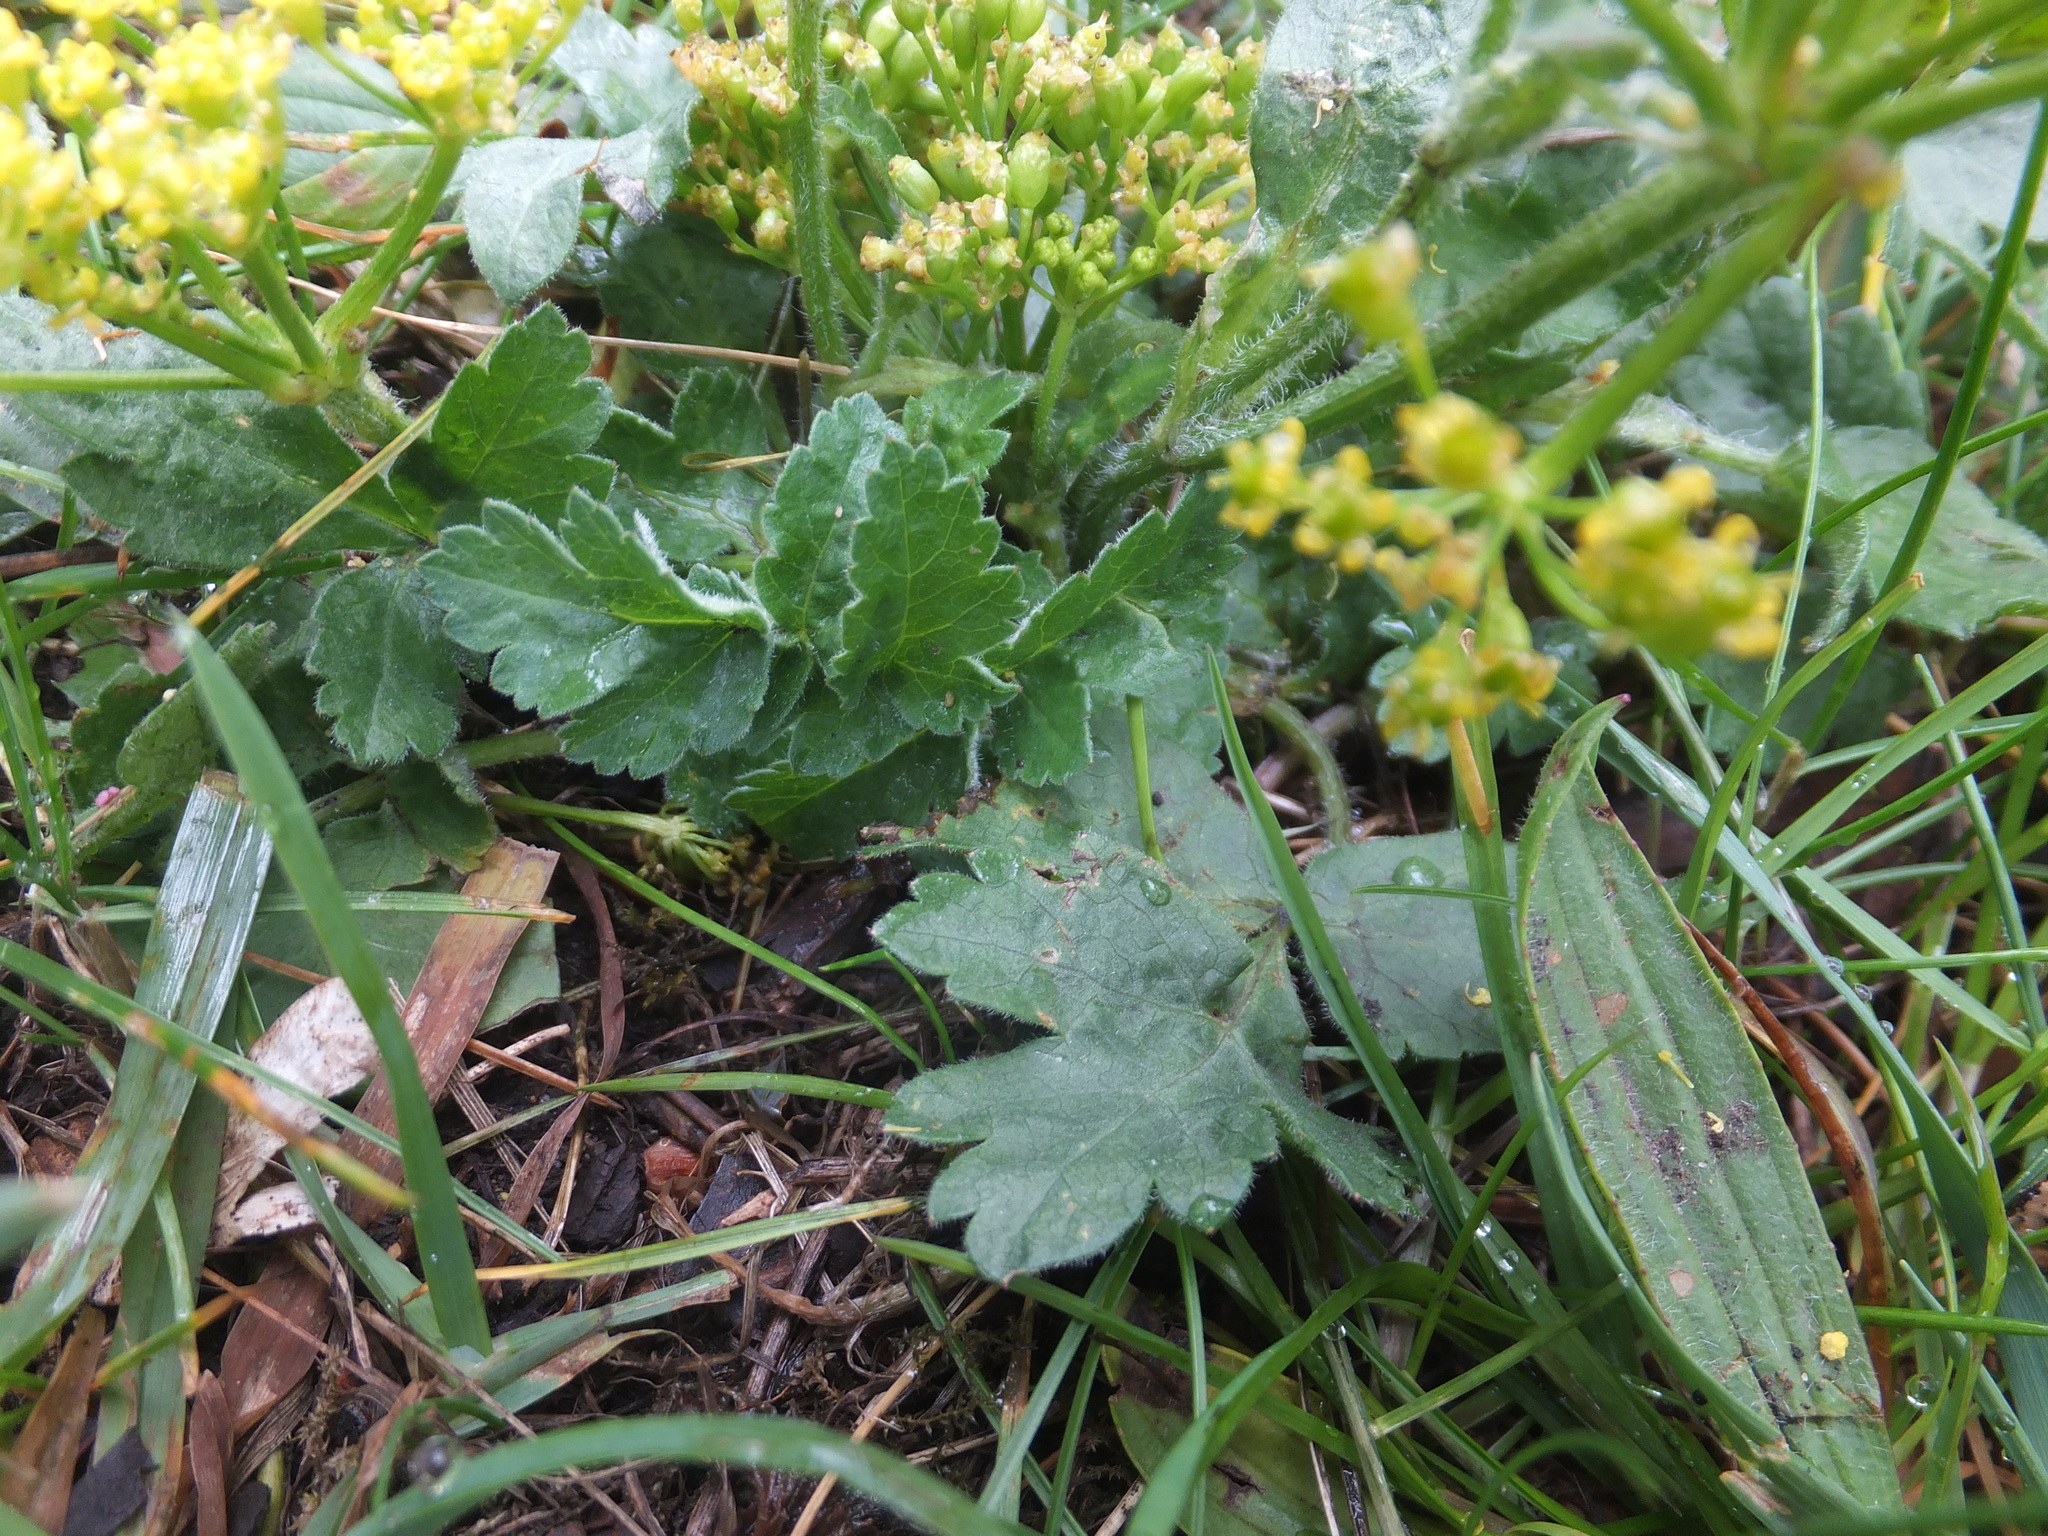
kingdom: Plantae
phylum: Tracheophyta
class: Magnoliopsida
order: Apiales
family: Apiaceae
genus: Pastinaca
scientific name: Pastinaca sativa
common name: Wild parsnip
